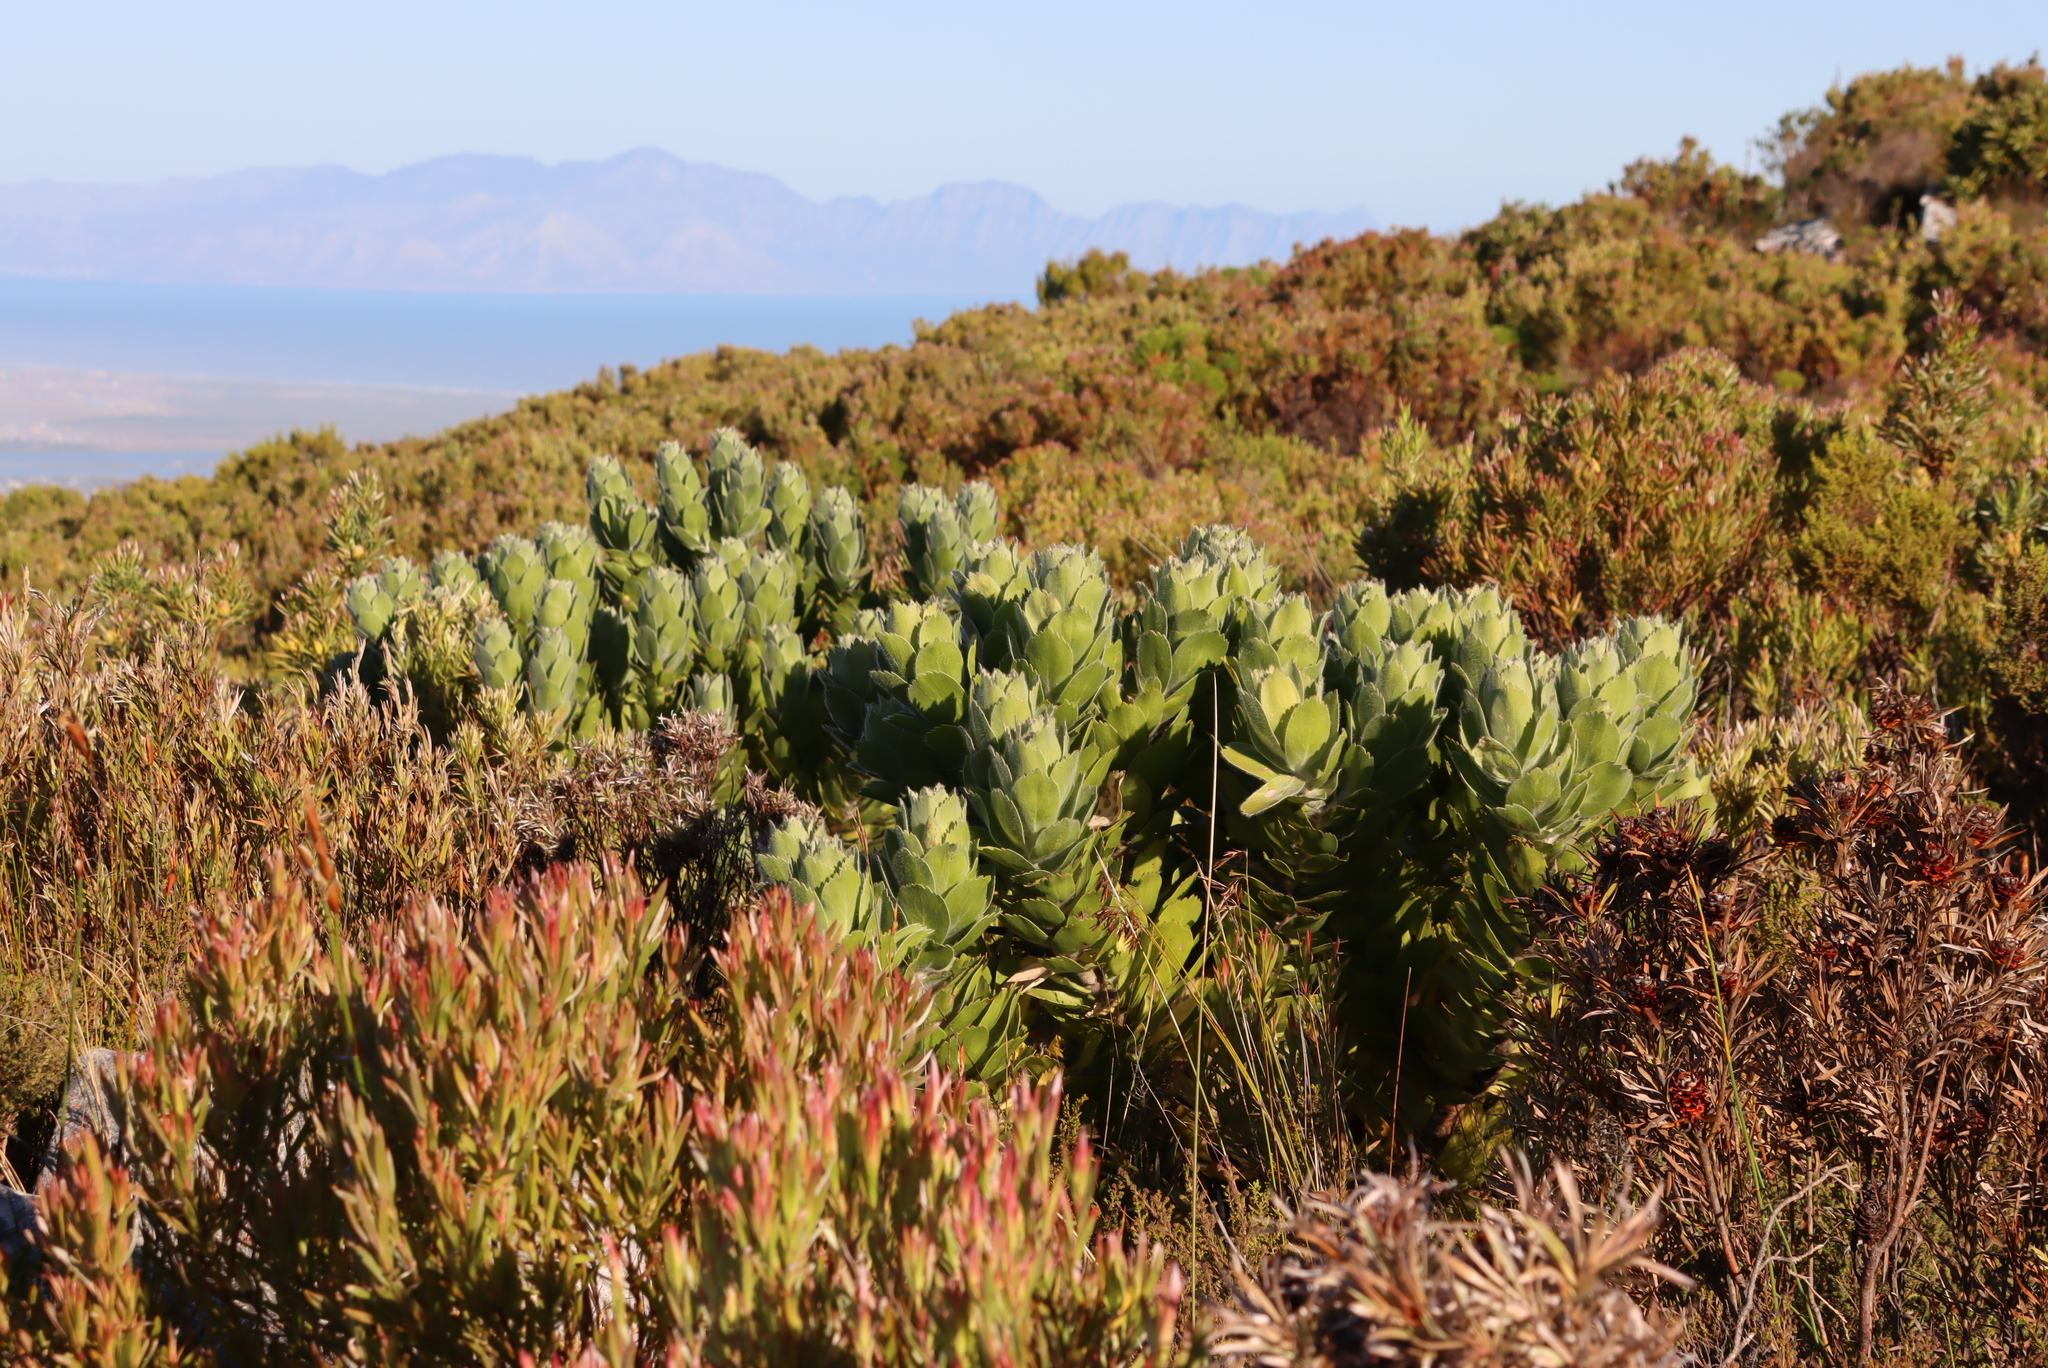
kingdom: Plantae
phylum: Tracheophyta
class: Magnoliopsida
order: Proteales
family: Proteaceae
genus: Leucospermum
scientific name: Leucospermum conocarpodendron
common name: Tree pincushion
